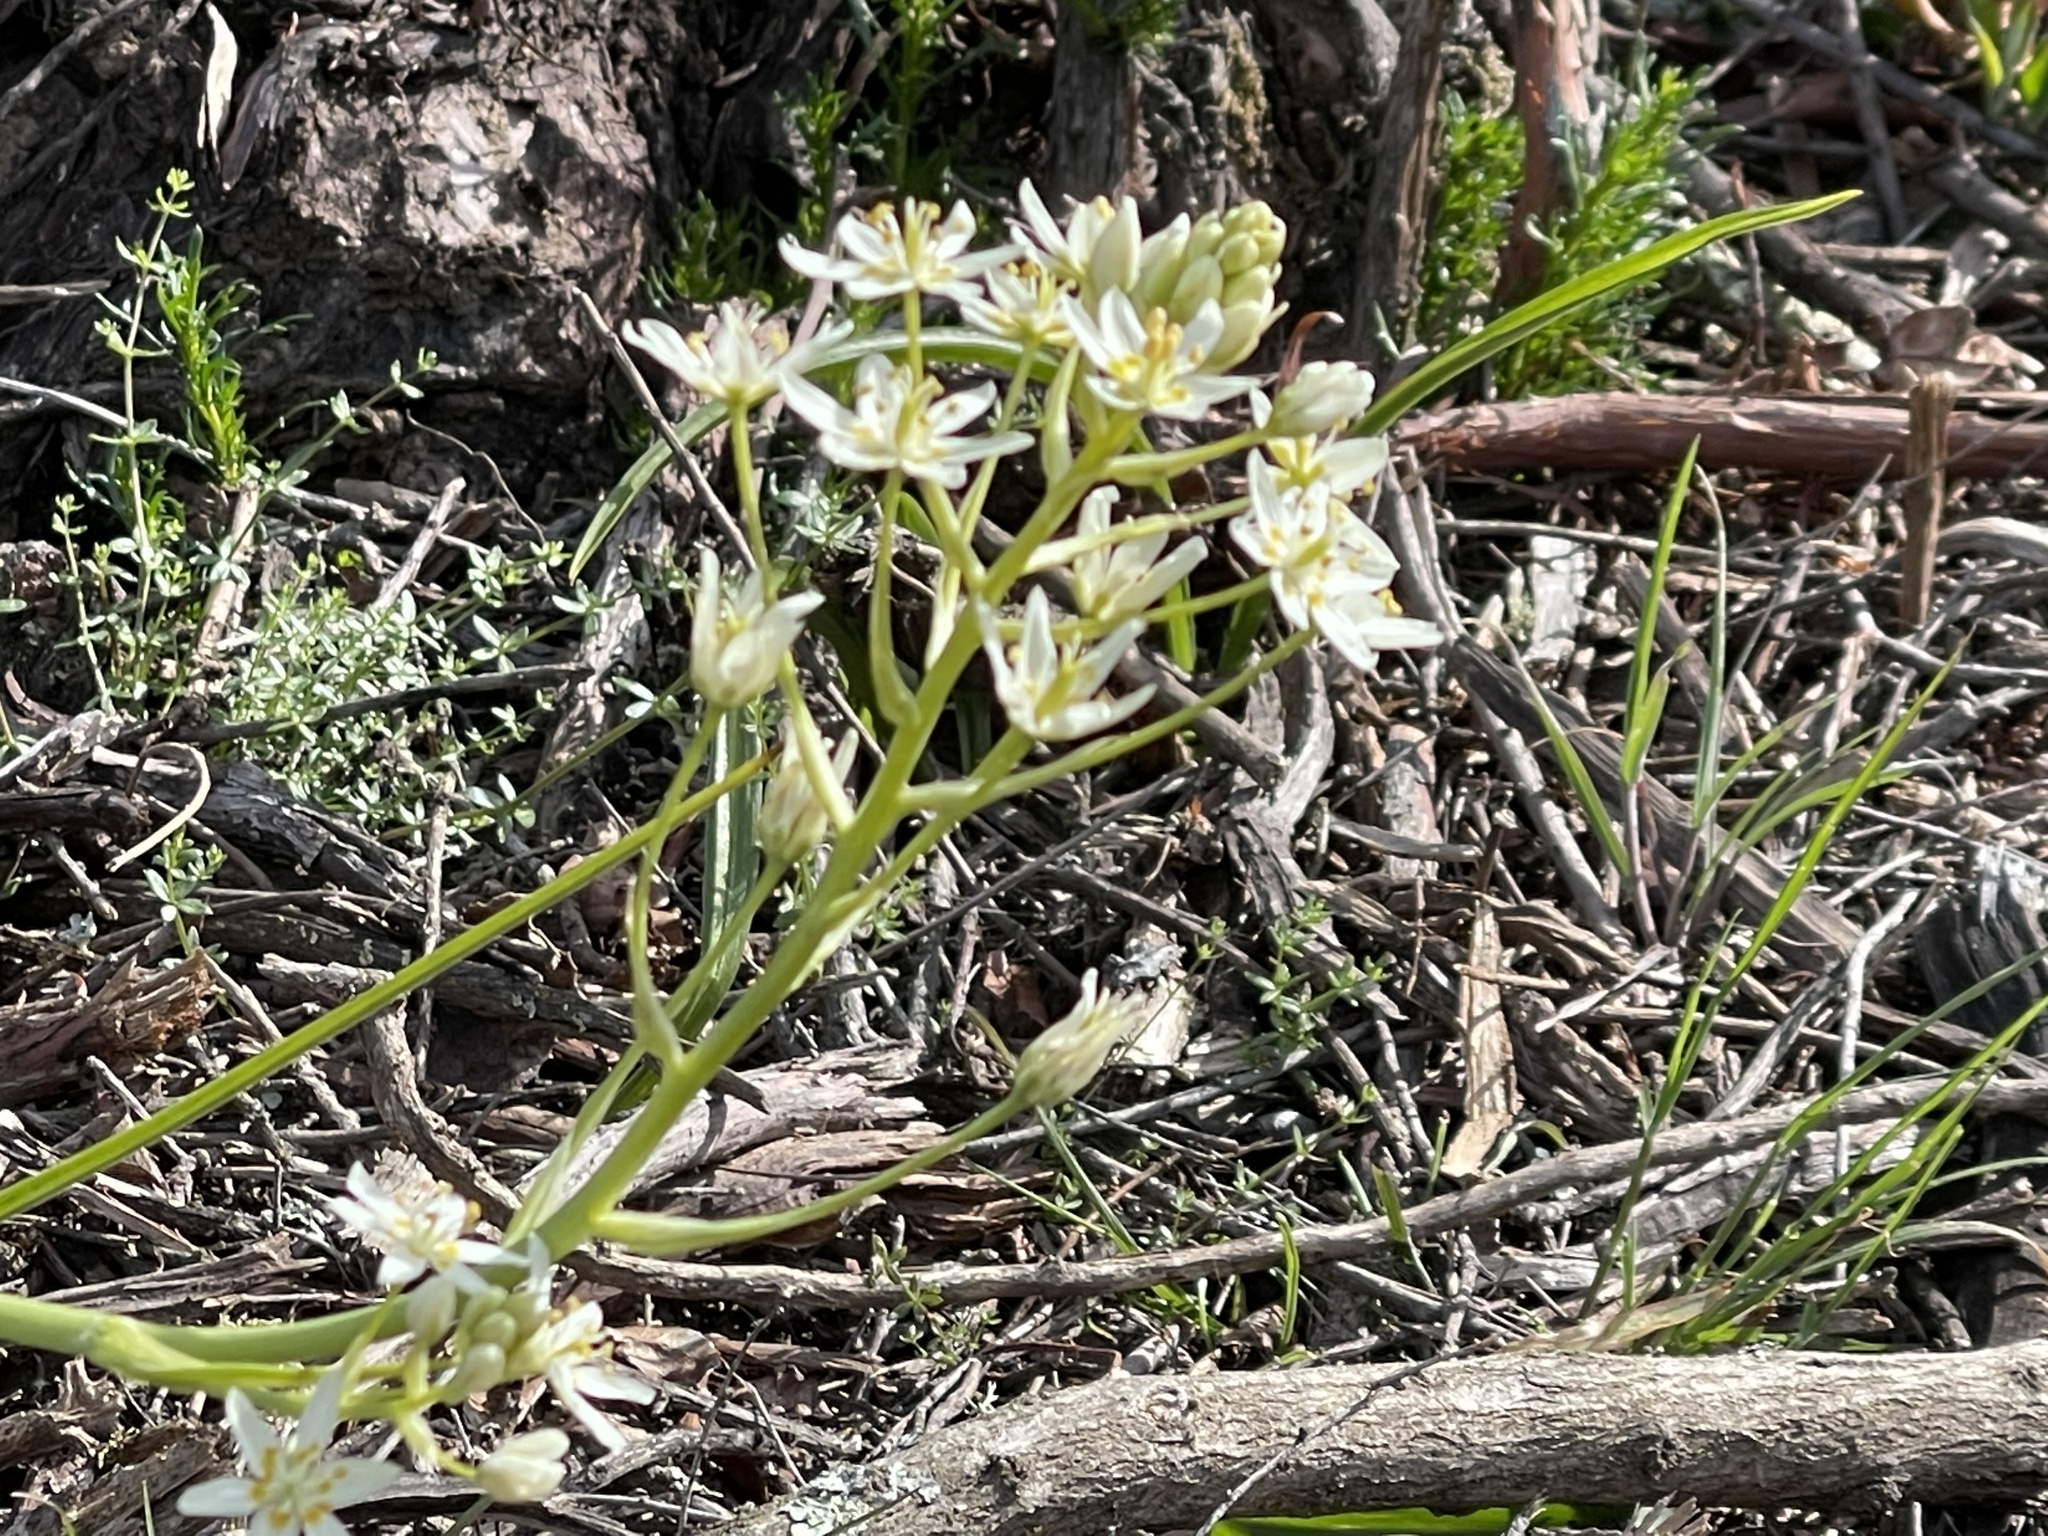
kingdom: Plantae
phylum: Tracheophyta
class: Liliopsida
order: Liliales
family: Melanthiaceae
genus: Toxicoscordion
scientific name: Toxicoscordion fremontii
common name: Fremont's death camas
